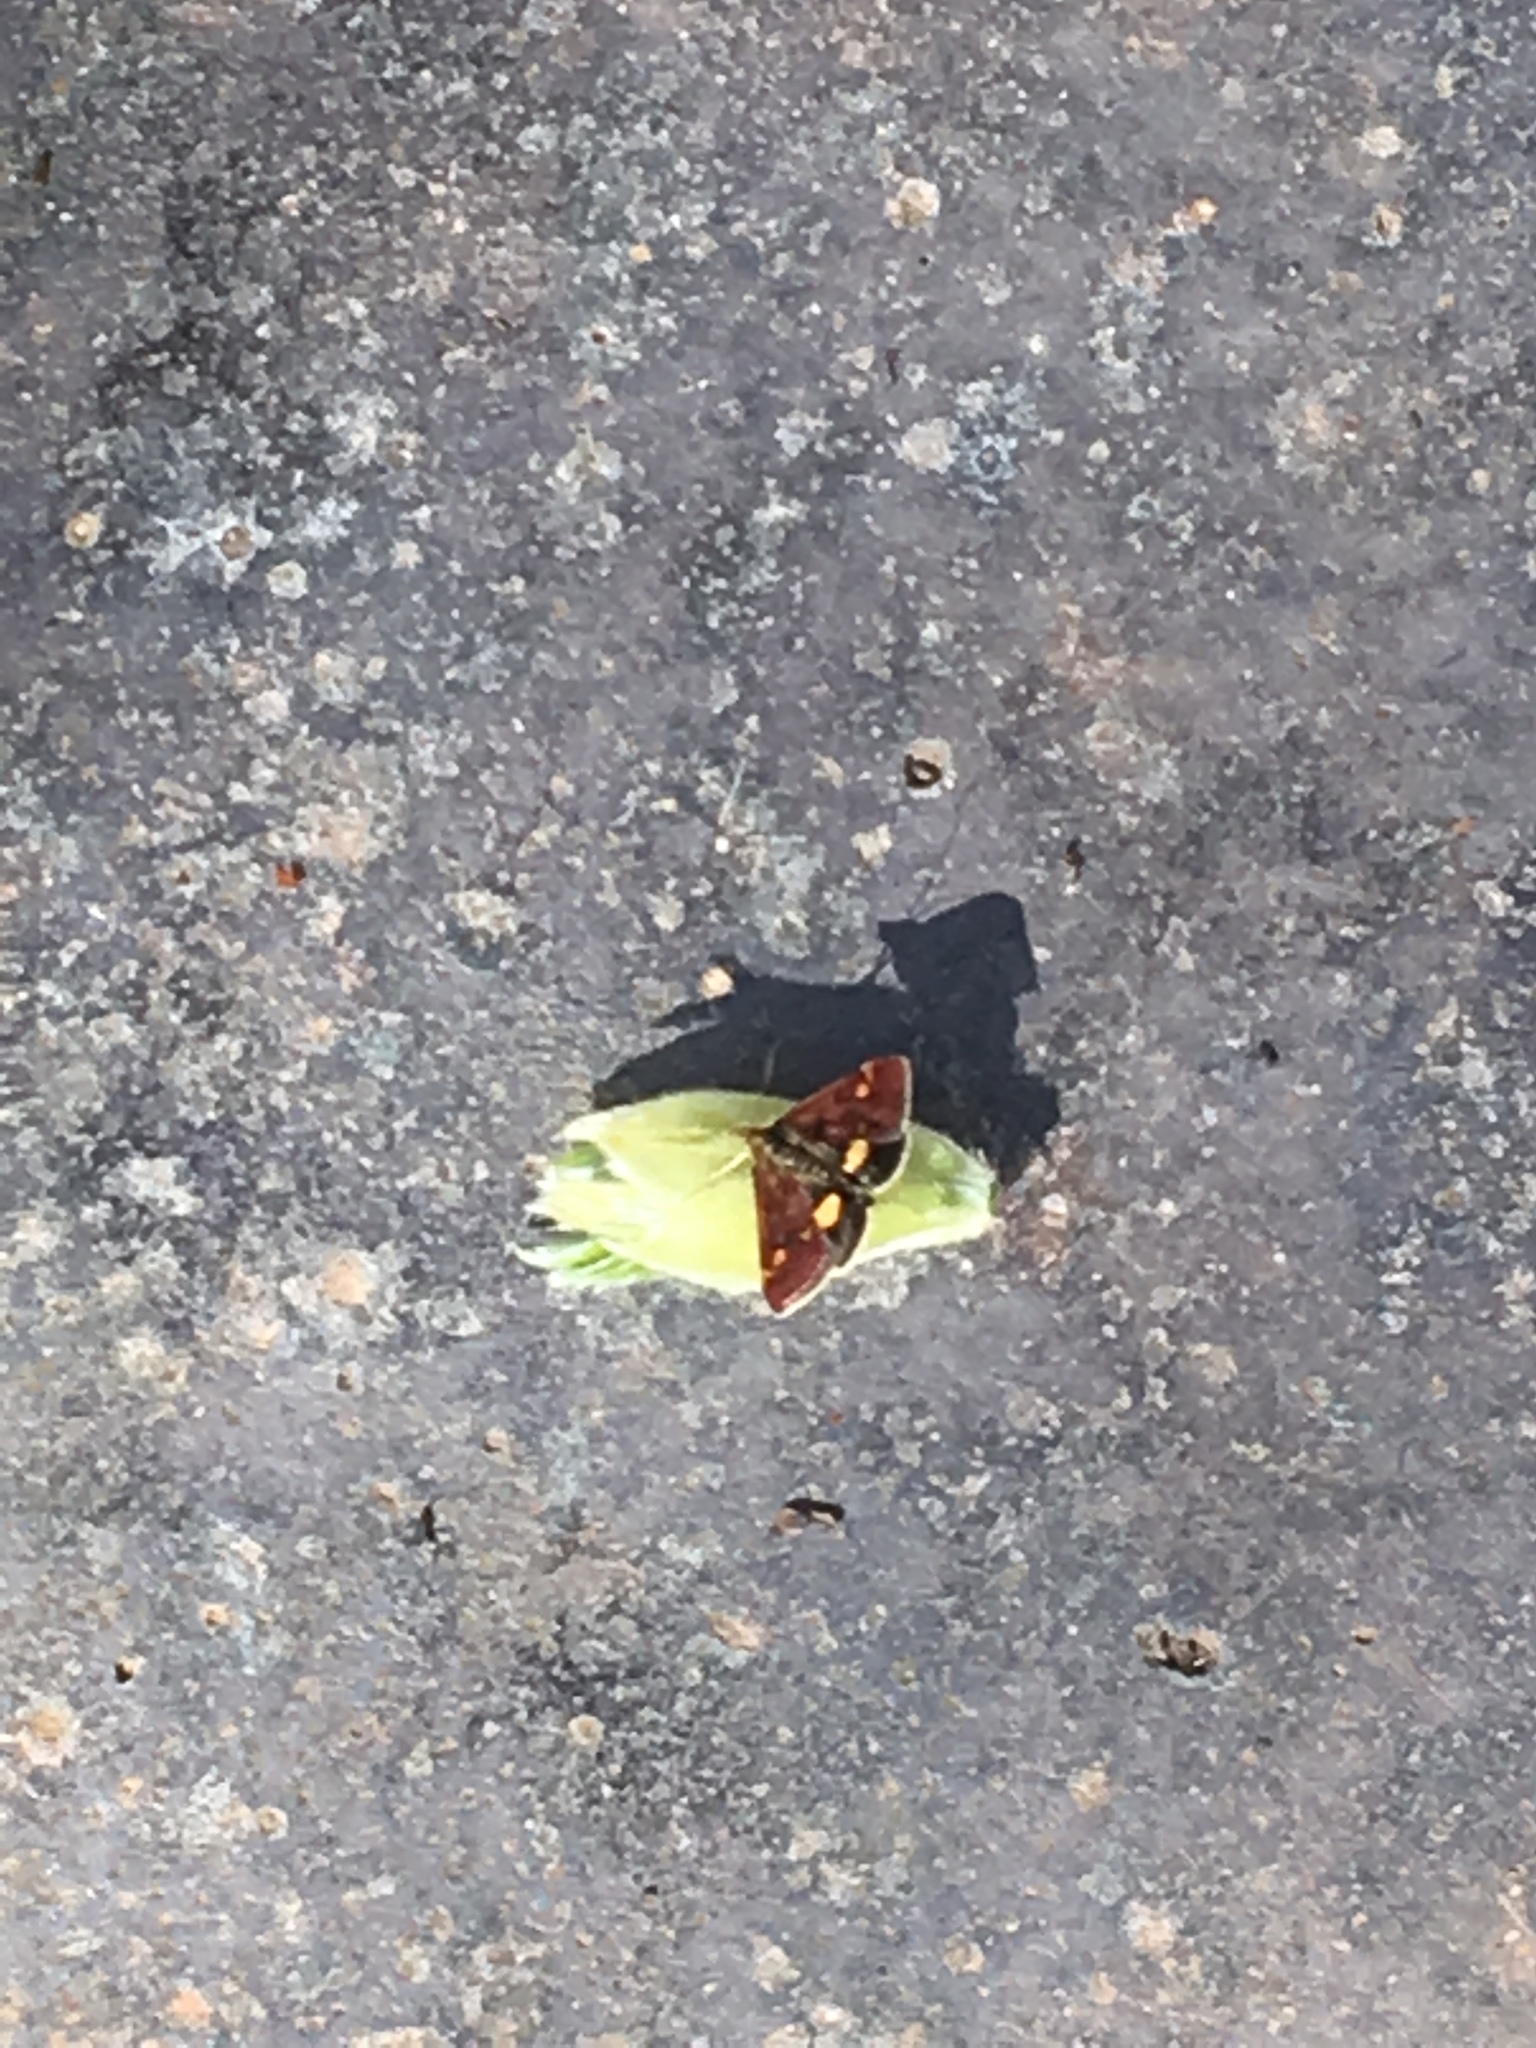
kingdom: Animalia
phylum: Arthropoda
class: Insecta
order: Lepidoptera
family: Crambidae
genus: Pyrausta
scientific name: Pyrausta aurata
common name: Small purple & gold
